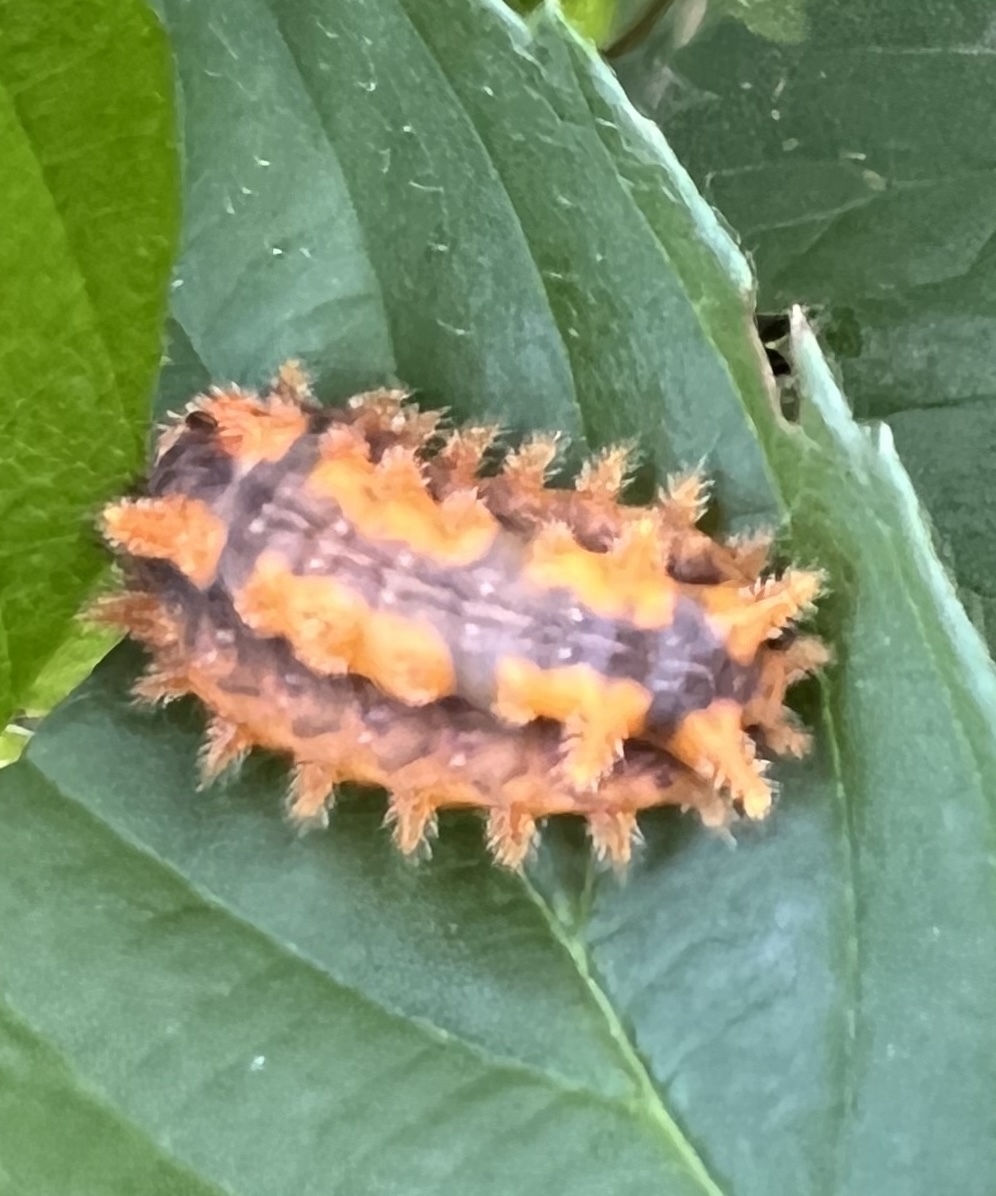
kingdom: Animalia
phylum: Arthropoda
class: Insecta
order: Lepidoptera
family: Limacodidae
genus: Euclea
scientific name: Euclea delphinii
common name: Spiny oak-slug moth
